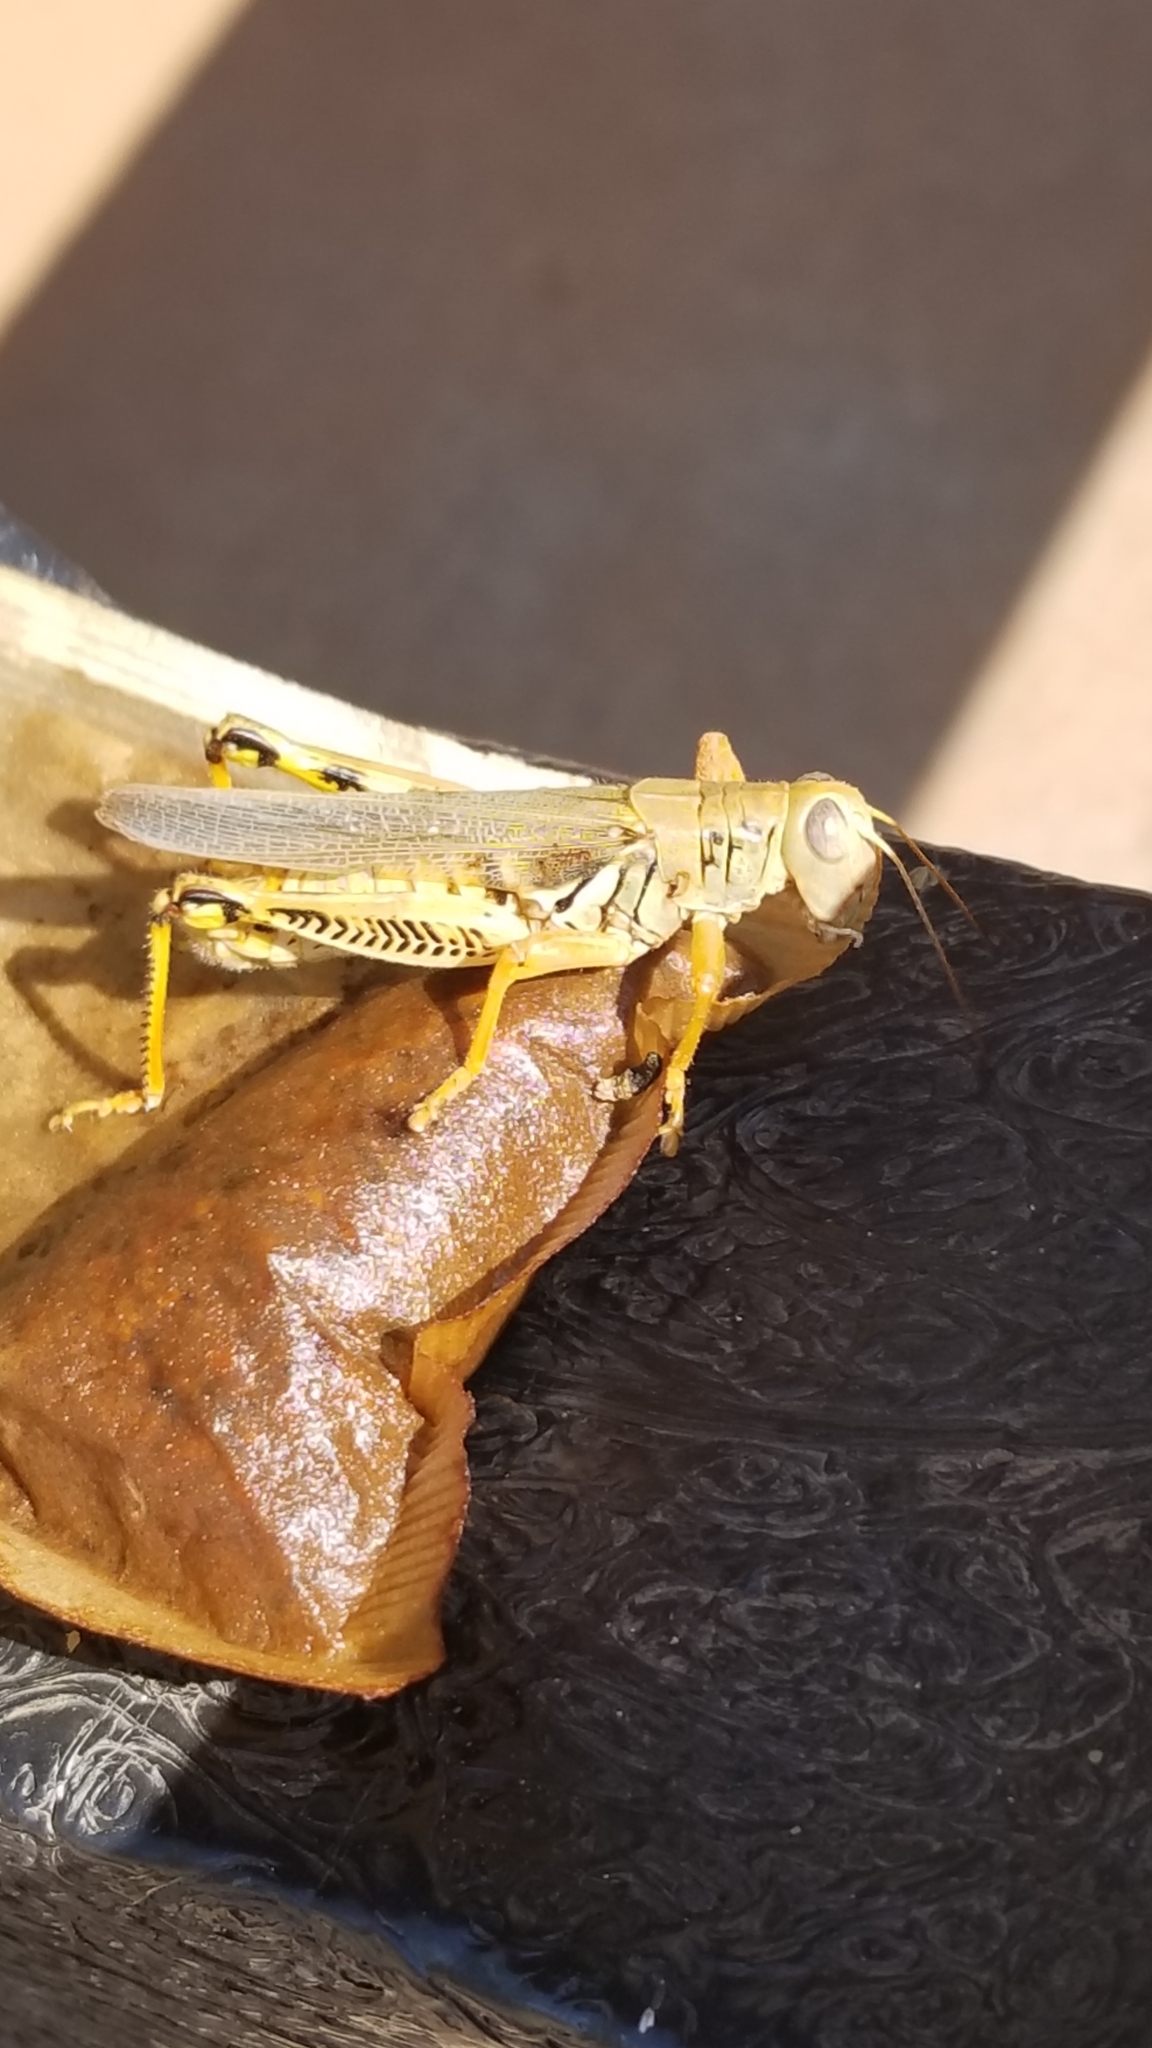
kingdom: Animalia
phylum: Arthropoda
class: Insecta
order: Orthoptera
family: Acrididae
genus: Melanoplus
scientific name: Melanoplus differentialis
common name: Differential grasshopper
